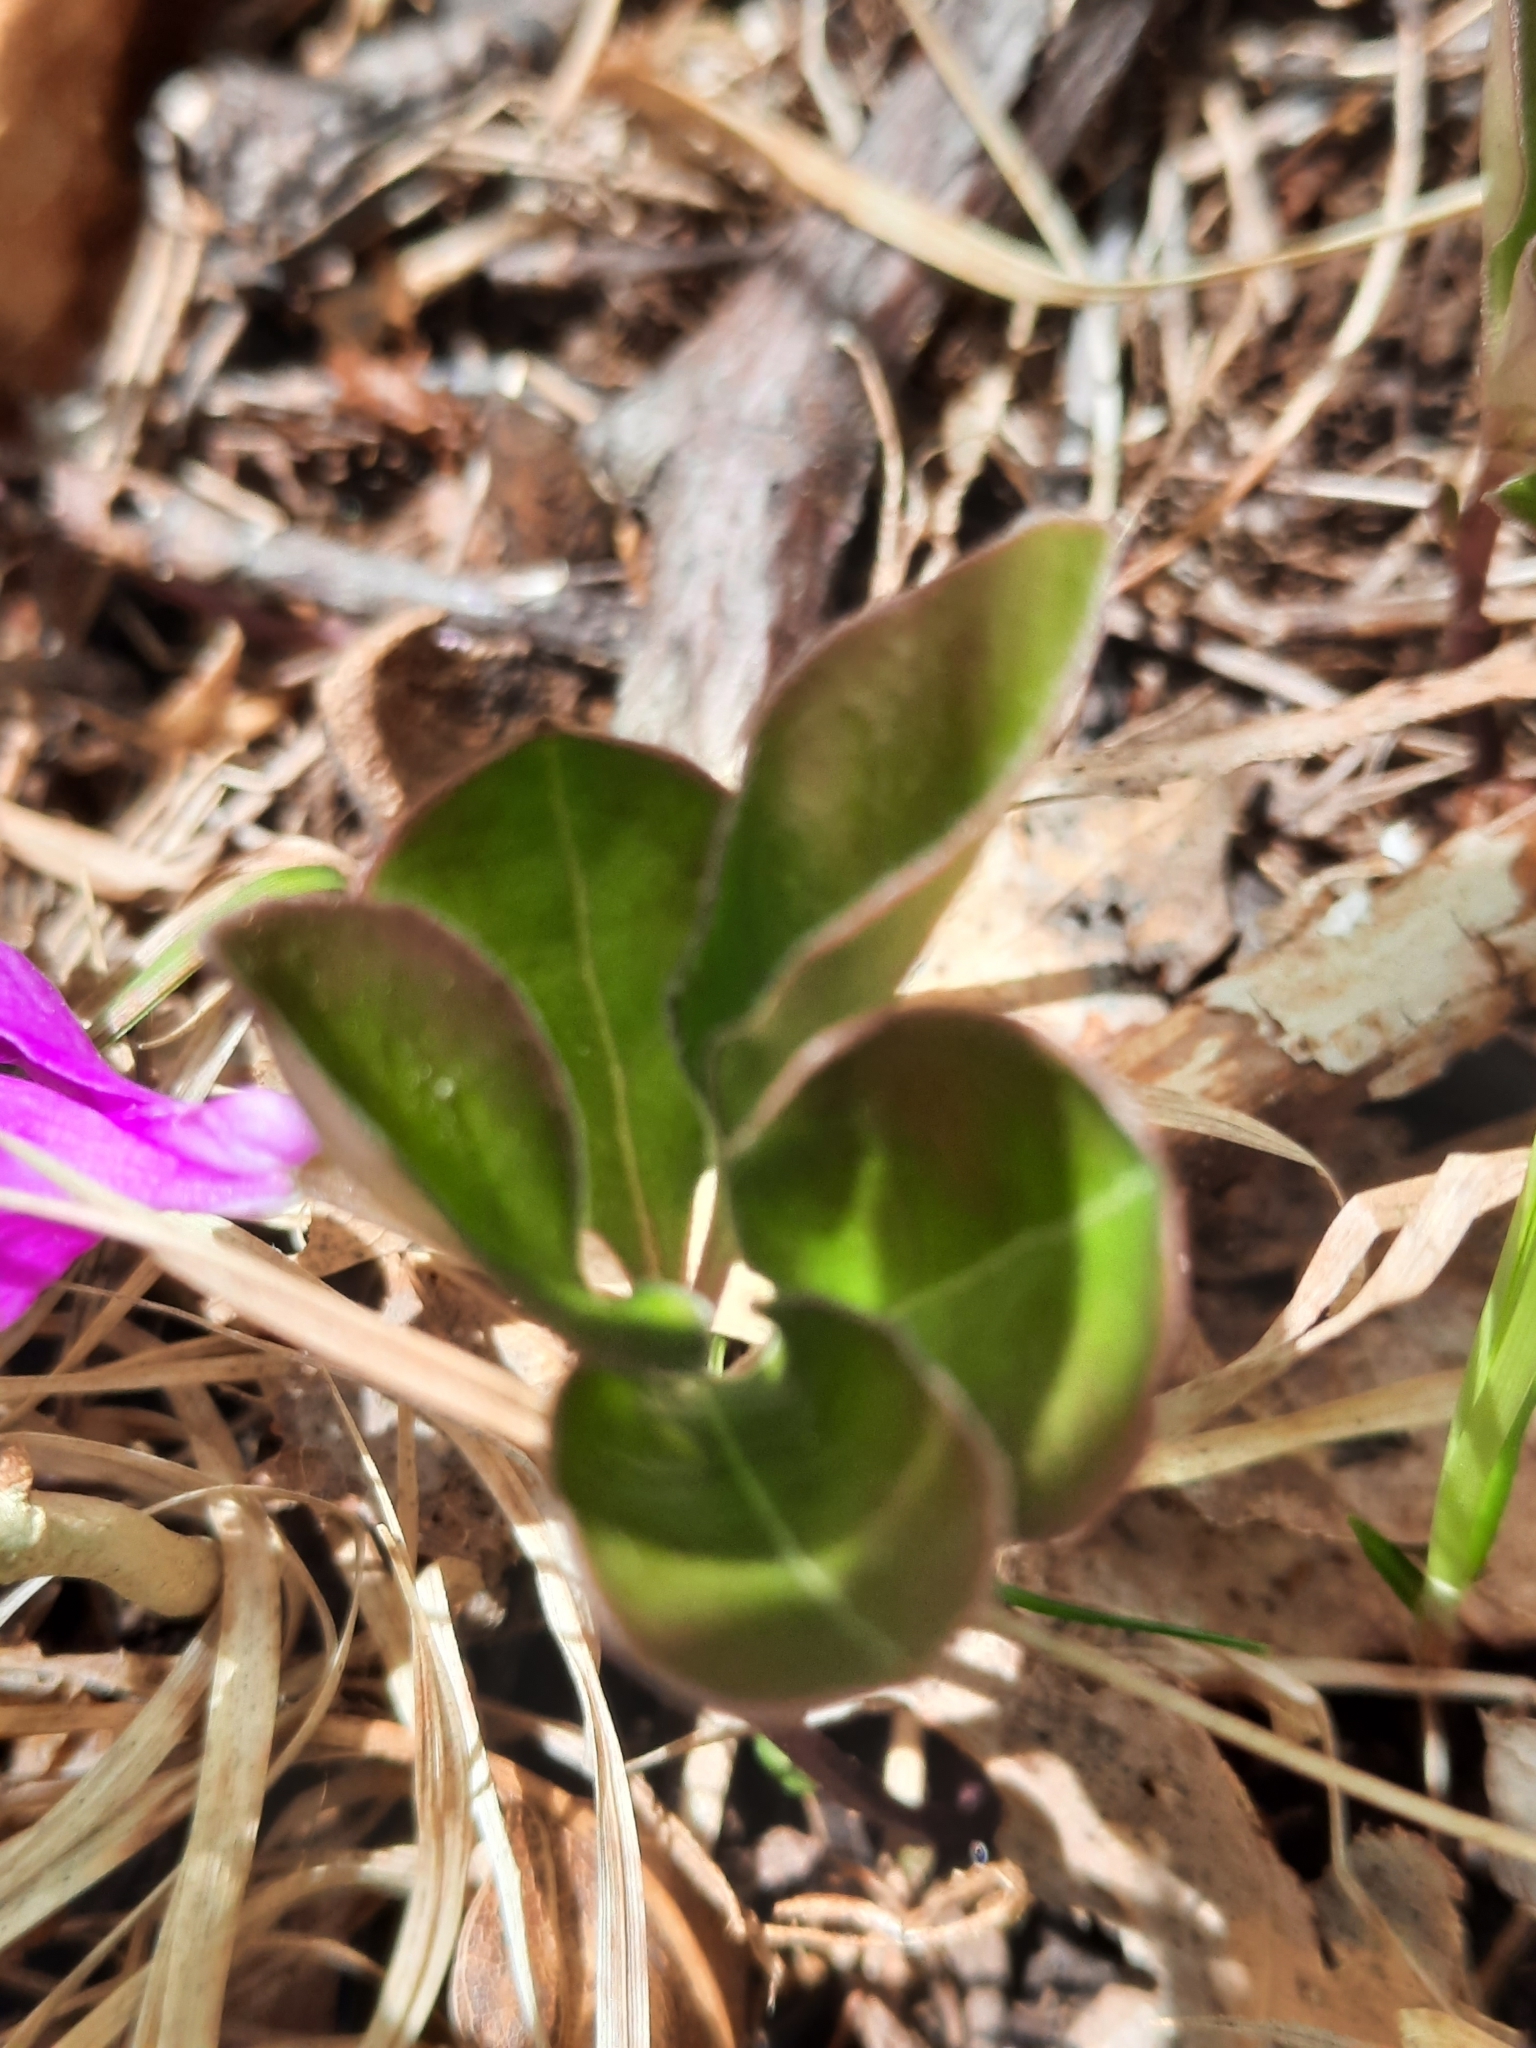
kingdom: Plantae
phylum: Tracheophyta
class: Magnoliopsida
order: Fabales
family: Polygalaceae
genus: Polygaloides
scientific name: Polygaloides paucifolia
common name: Bird-on-the-wing
